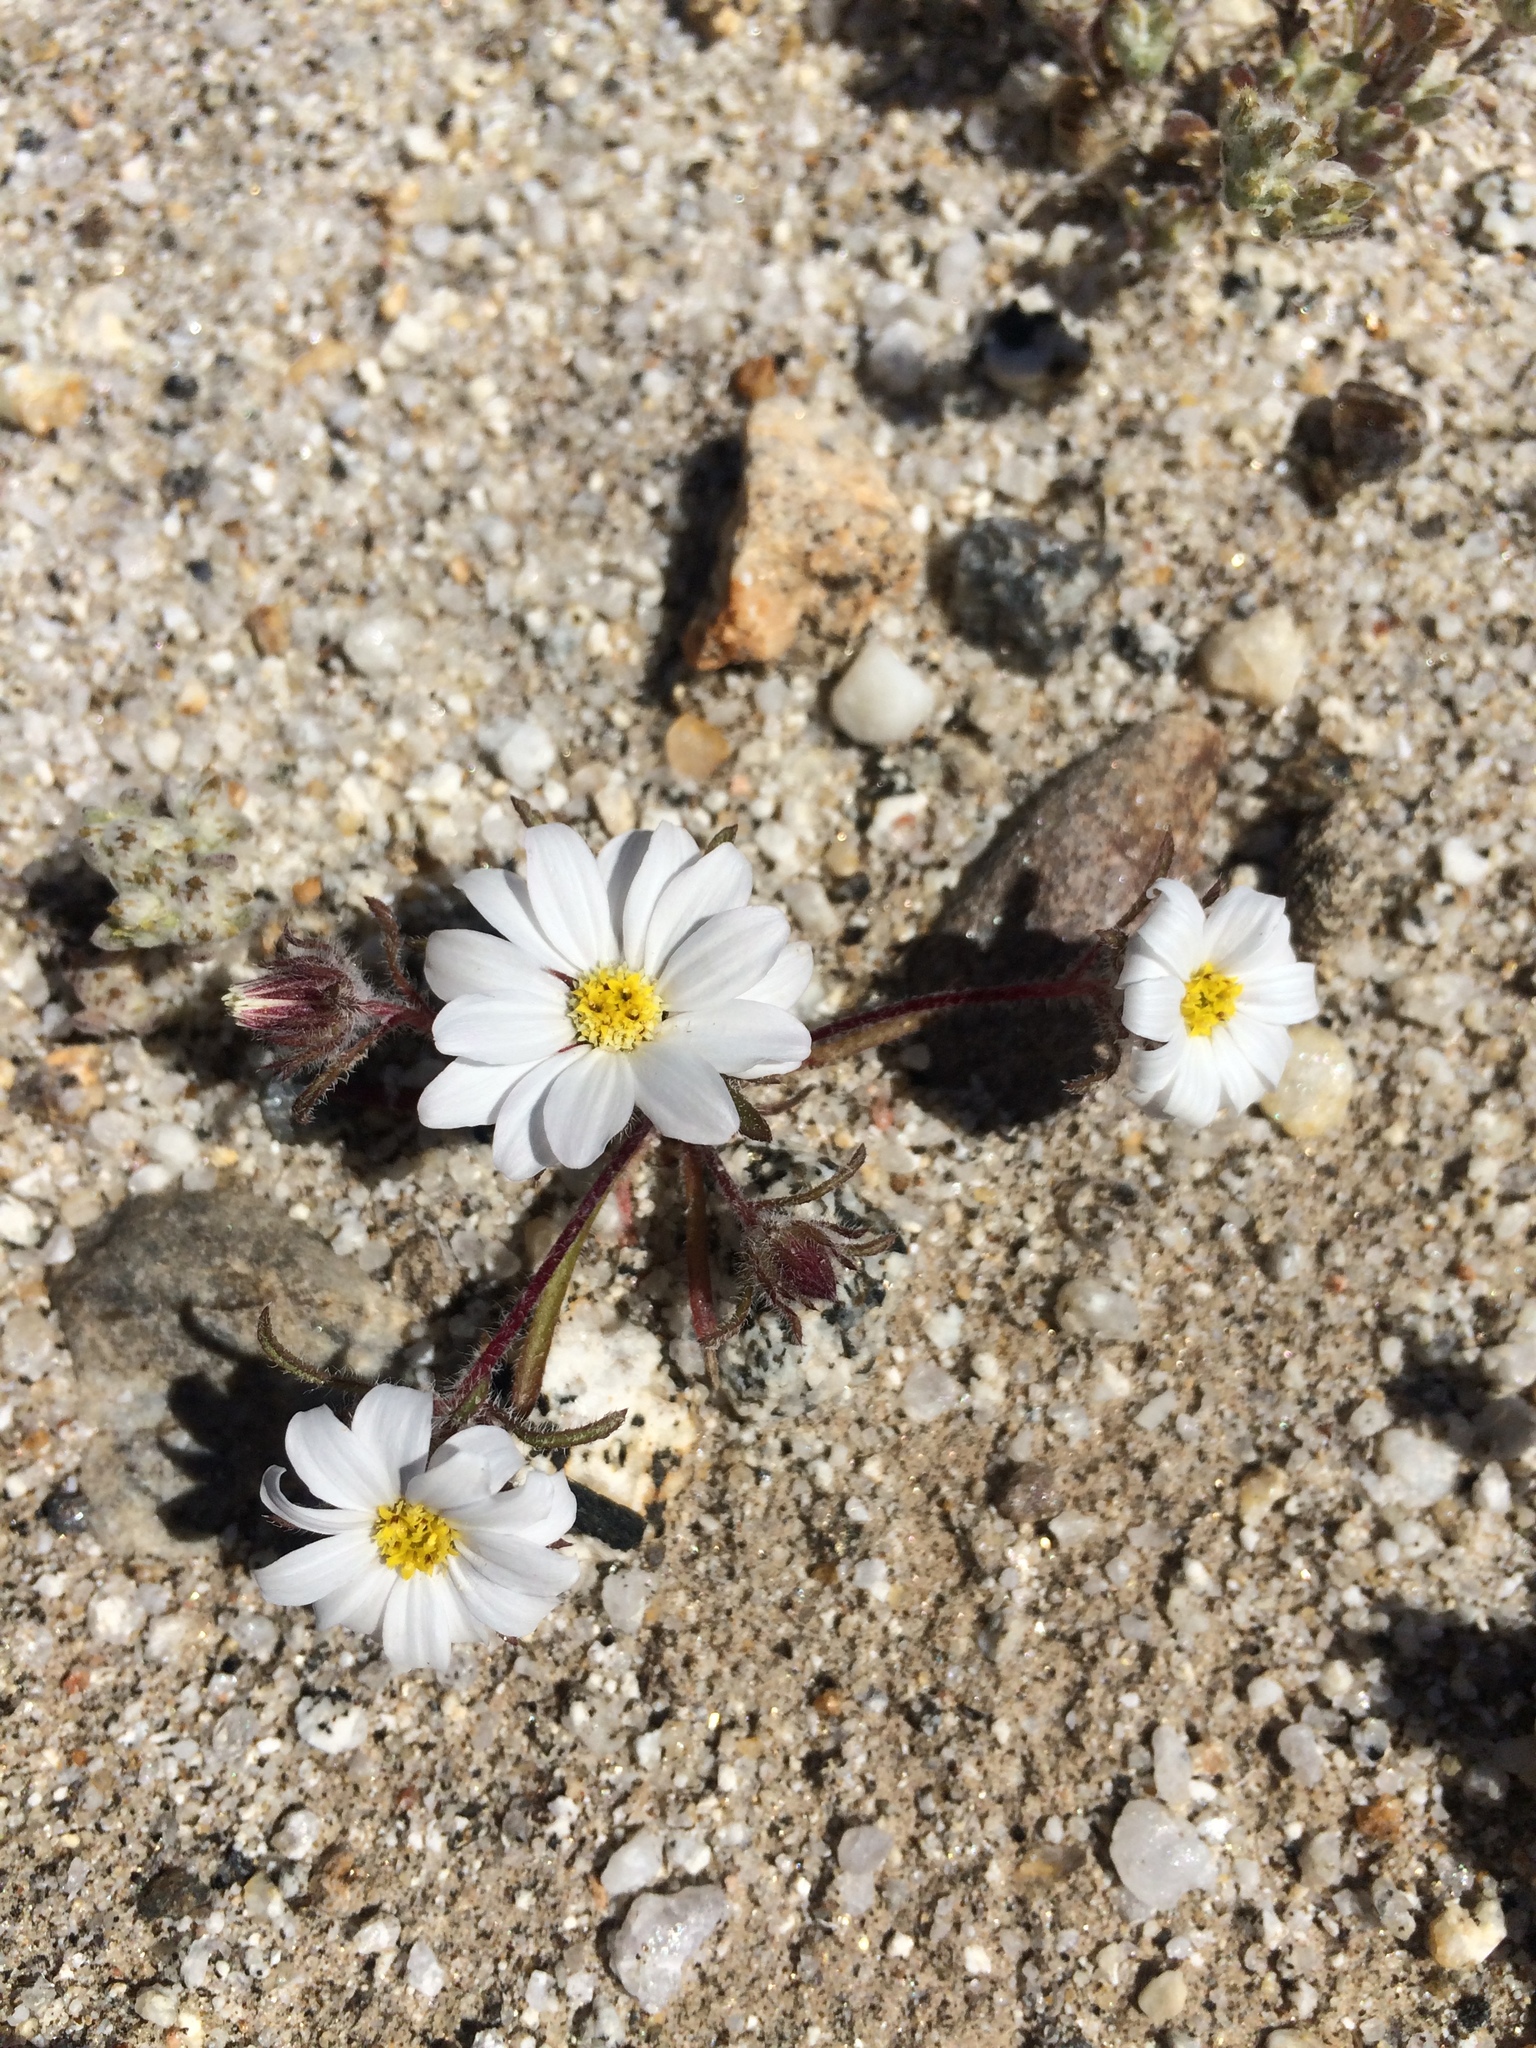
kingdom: Plantae
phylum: Tracheophyta
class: Magnoliopsida
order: Asterales
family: Asteraceae
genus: Monoptilon
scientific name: Monoptilon bellioides
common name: Bristly desertstar
